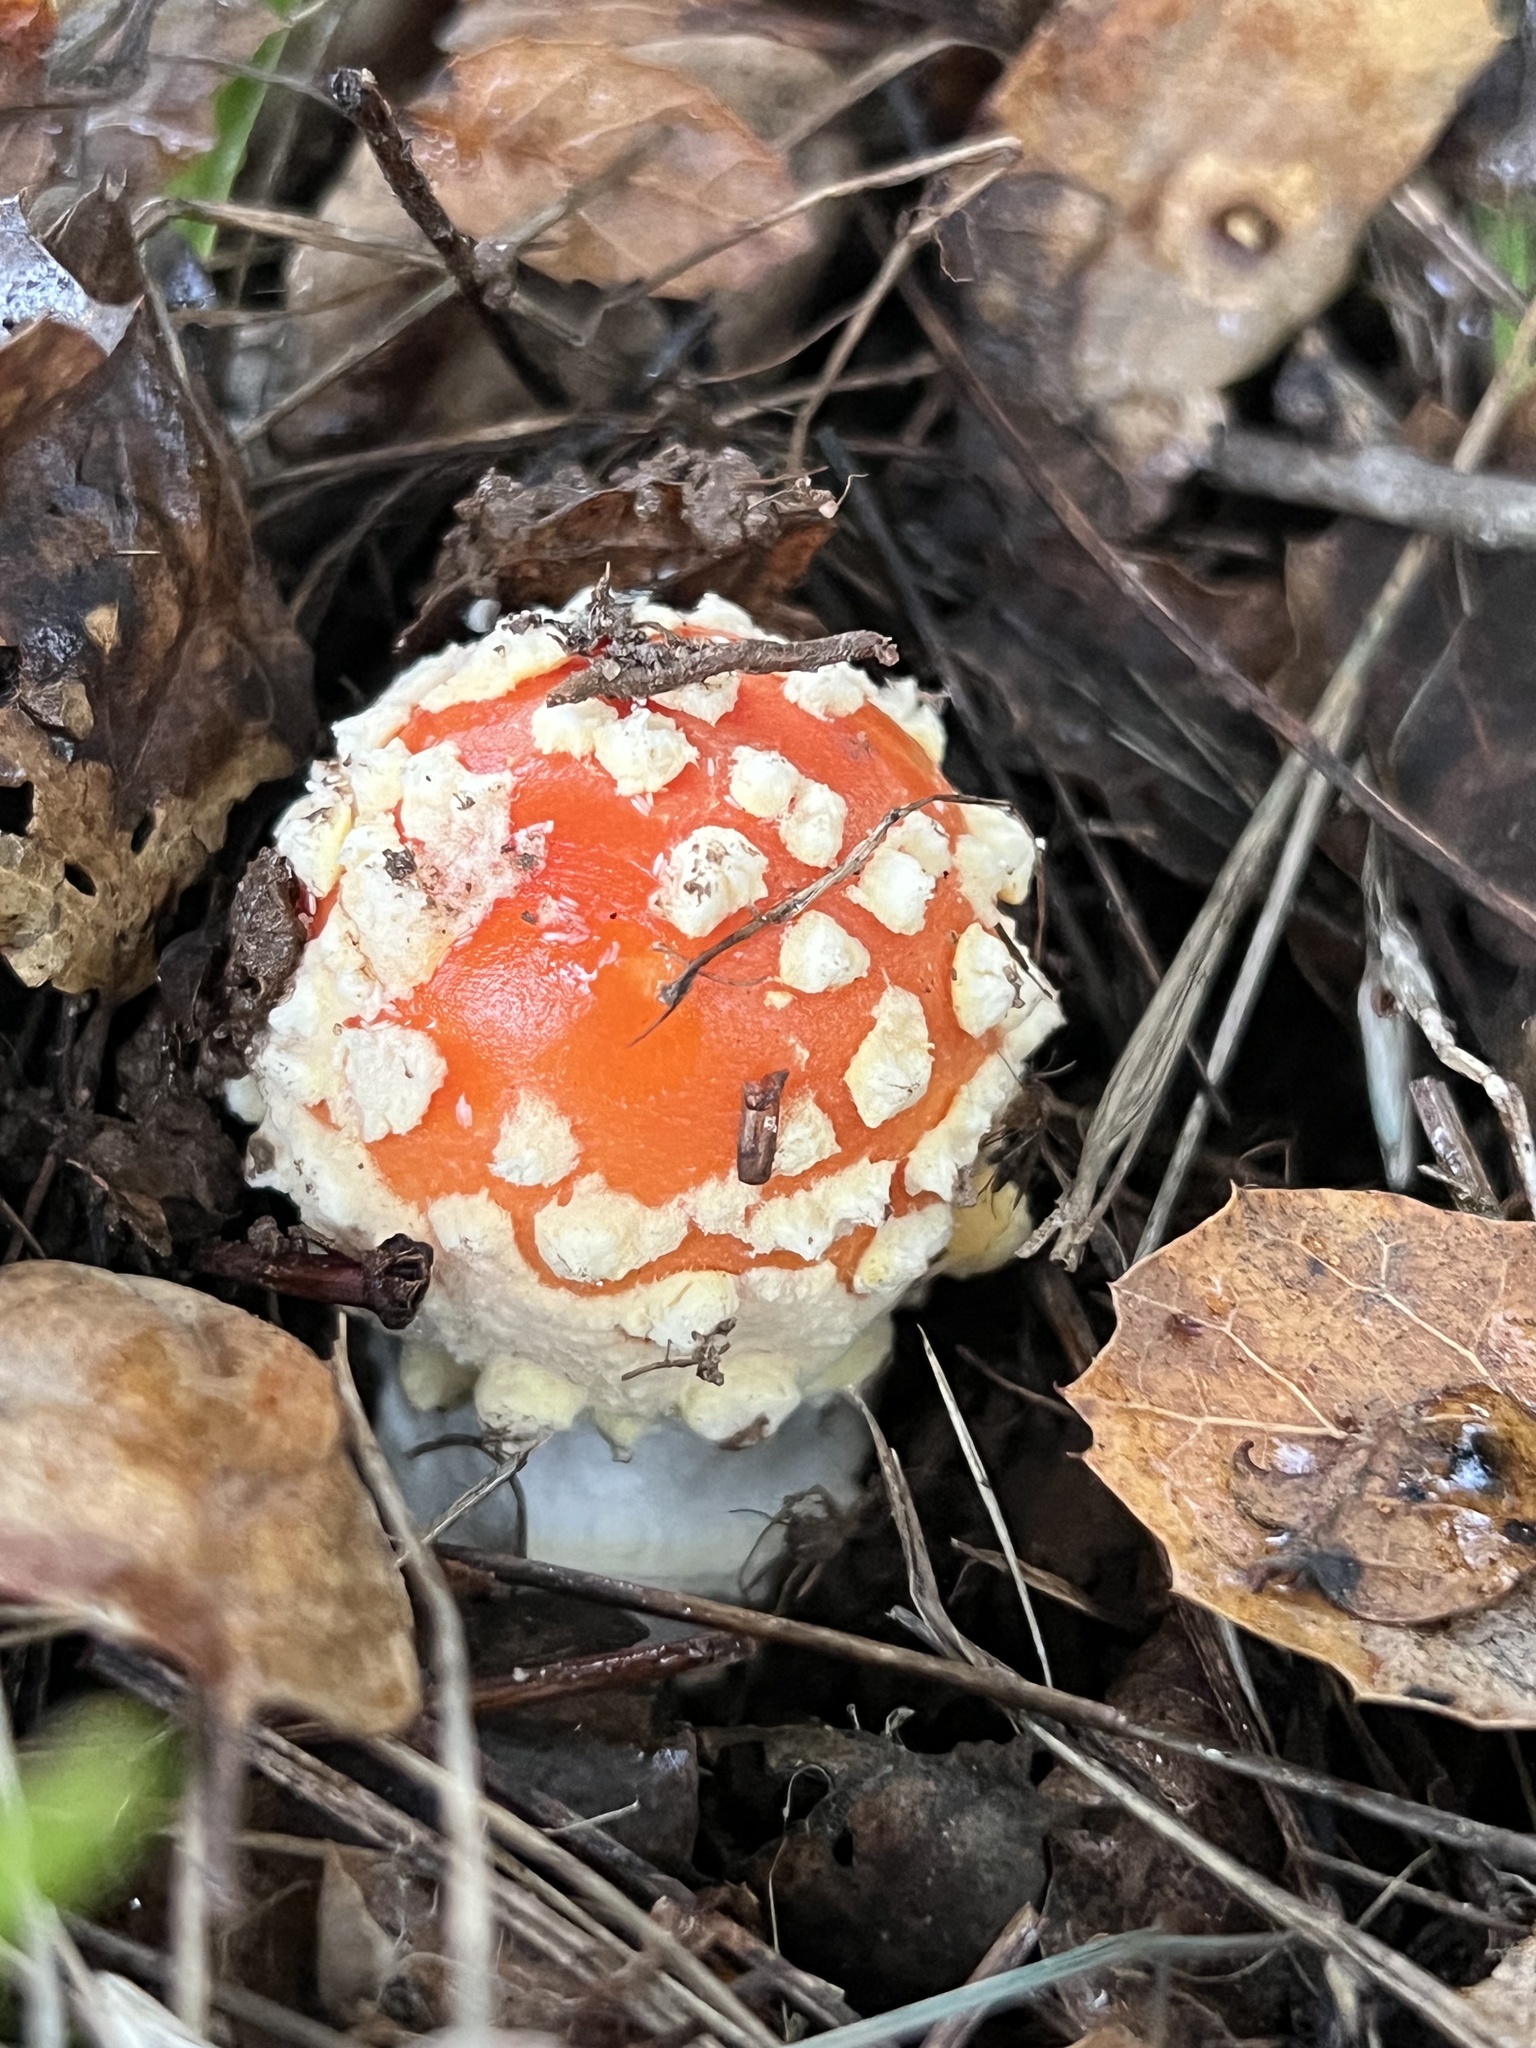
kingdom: Fungi
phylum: Basidiomycota
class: Agaricomycetes
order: Agaricales
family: Amanitaceae
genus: Amanita
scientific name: Amanita muscaria
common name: Fly agaric
